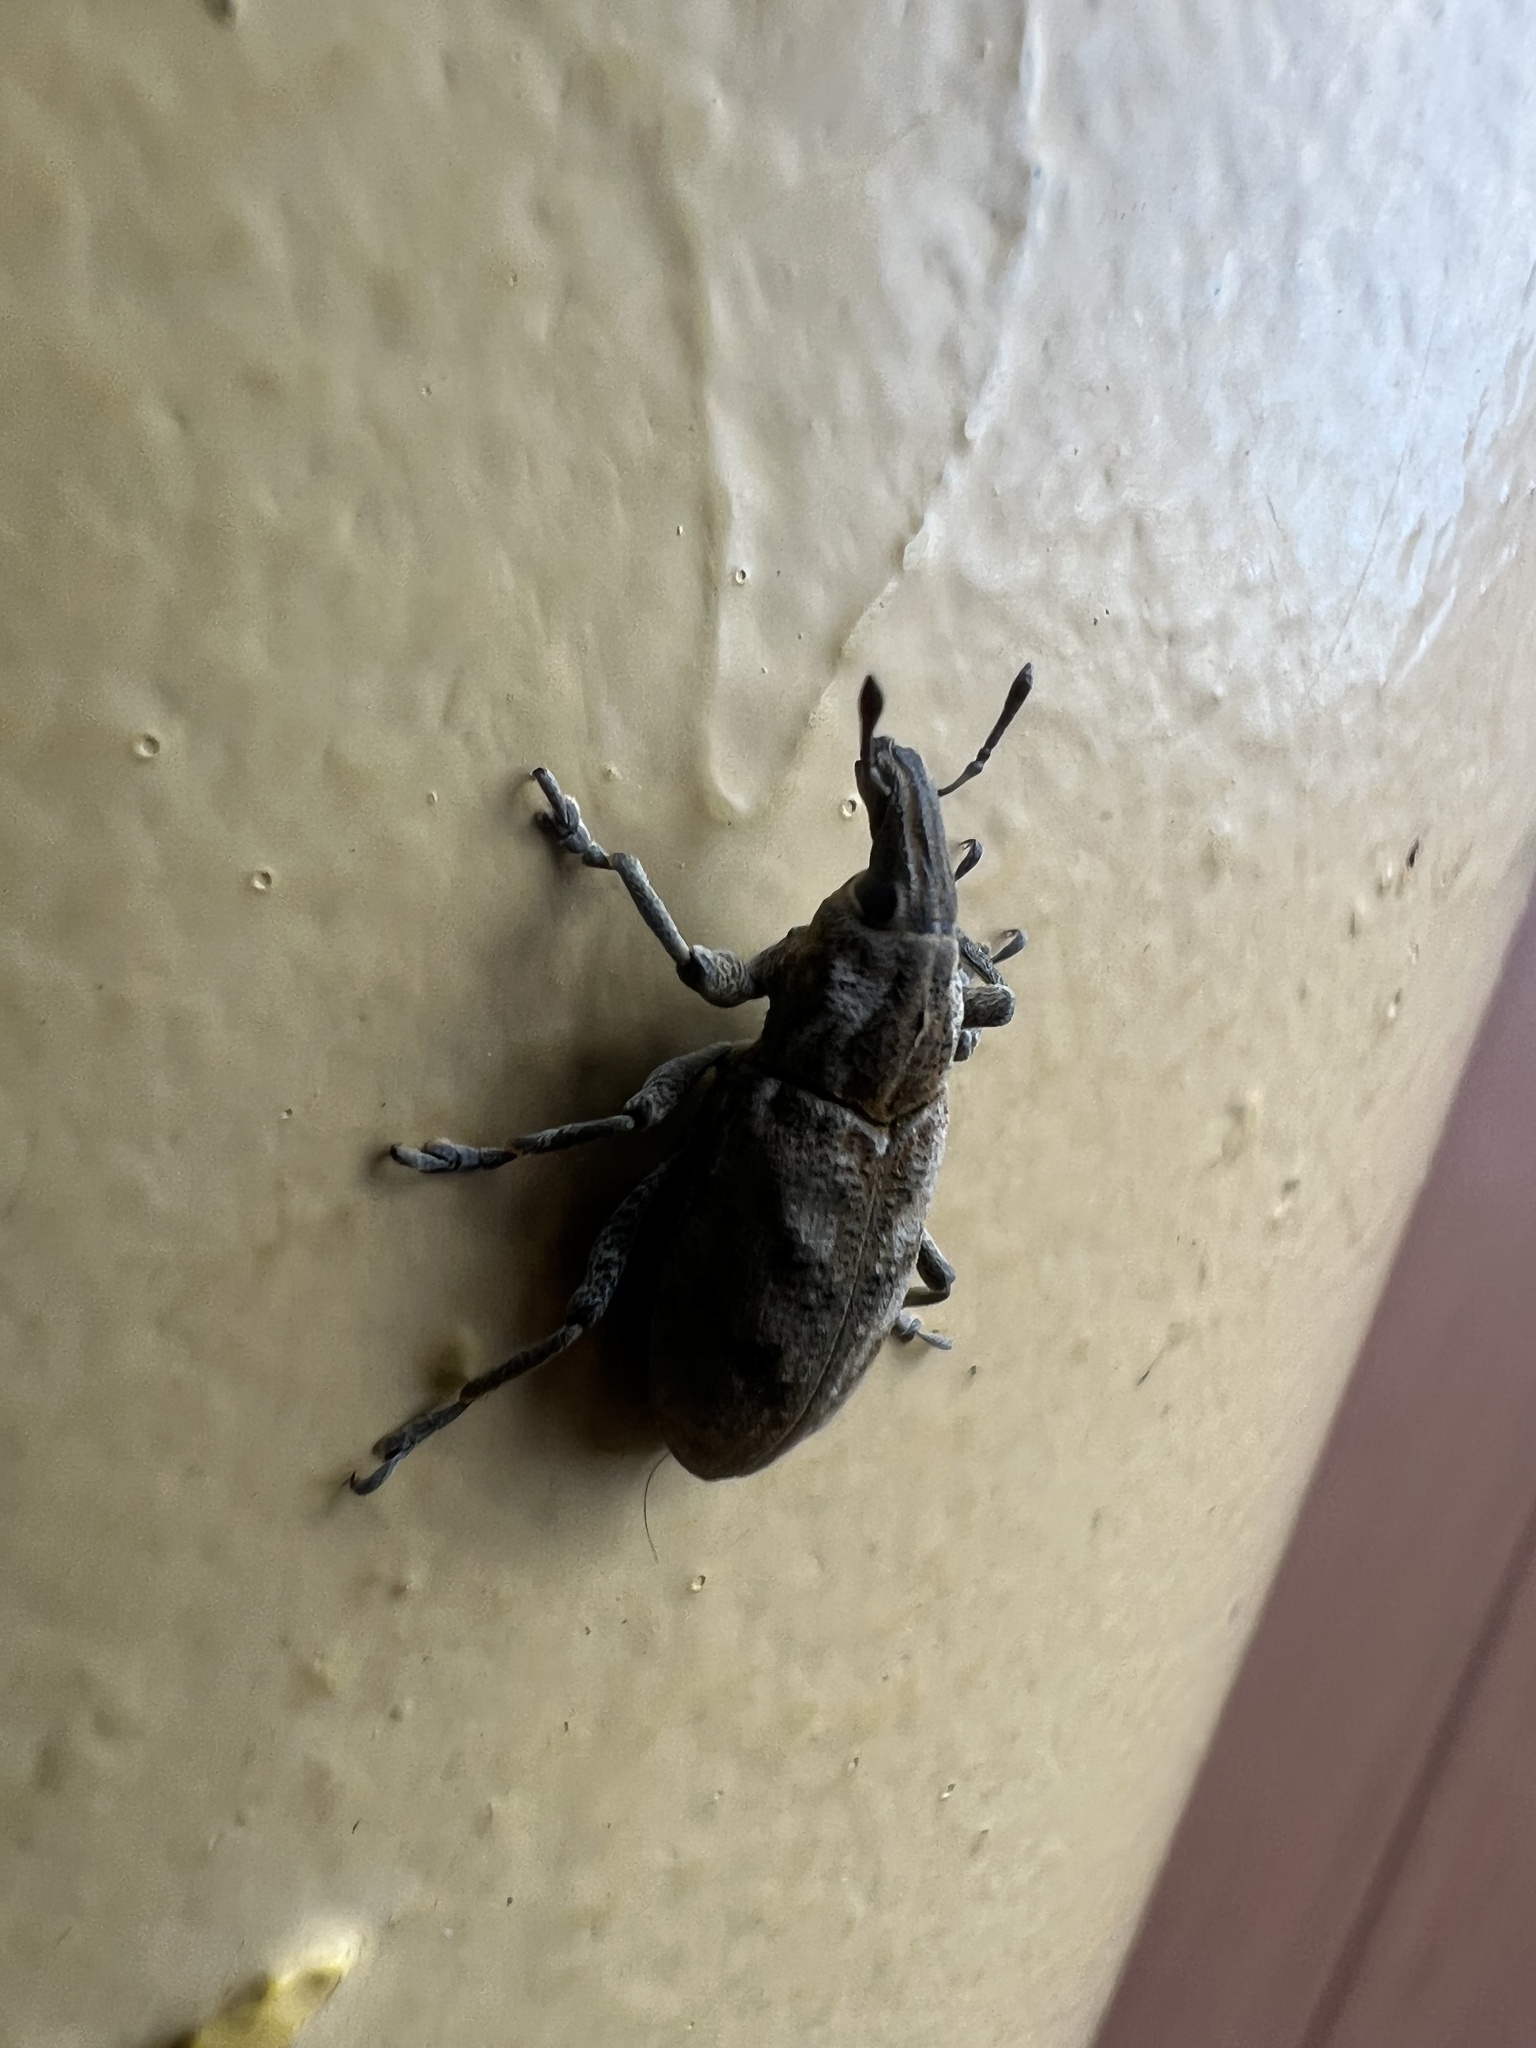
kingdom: Animalia
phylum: Arthropoda
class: Insecta
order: Coleoptera
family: Curculionidae
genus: Cleonis
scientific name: Cleonis pigra
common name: Large thistle weevil
